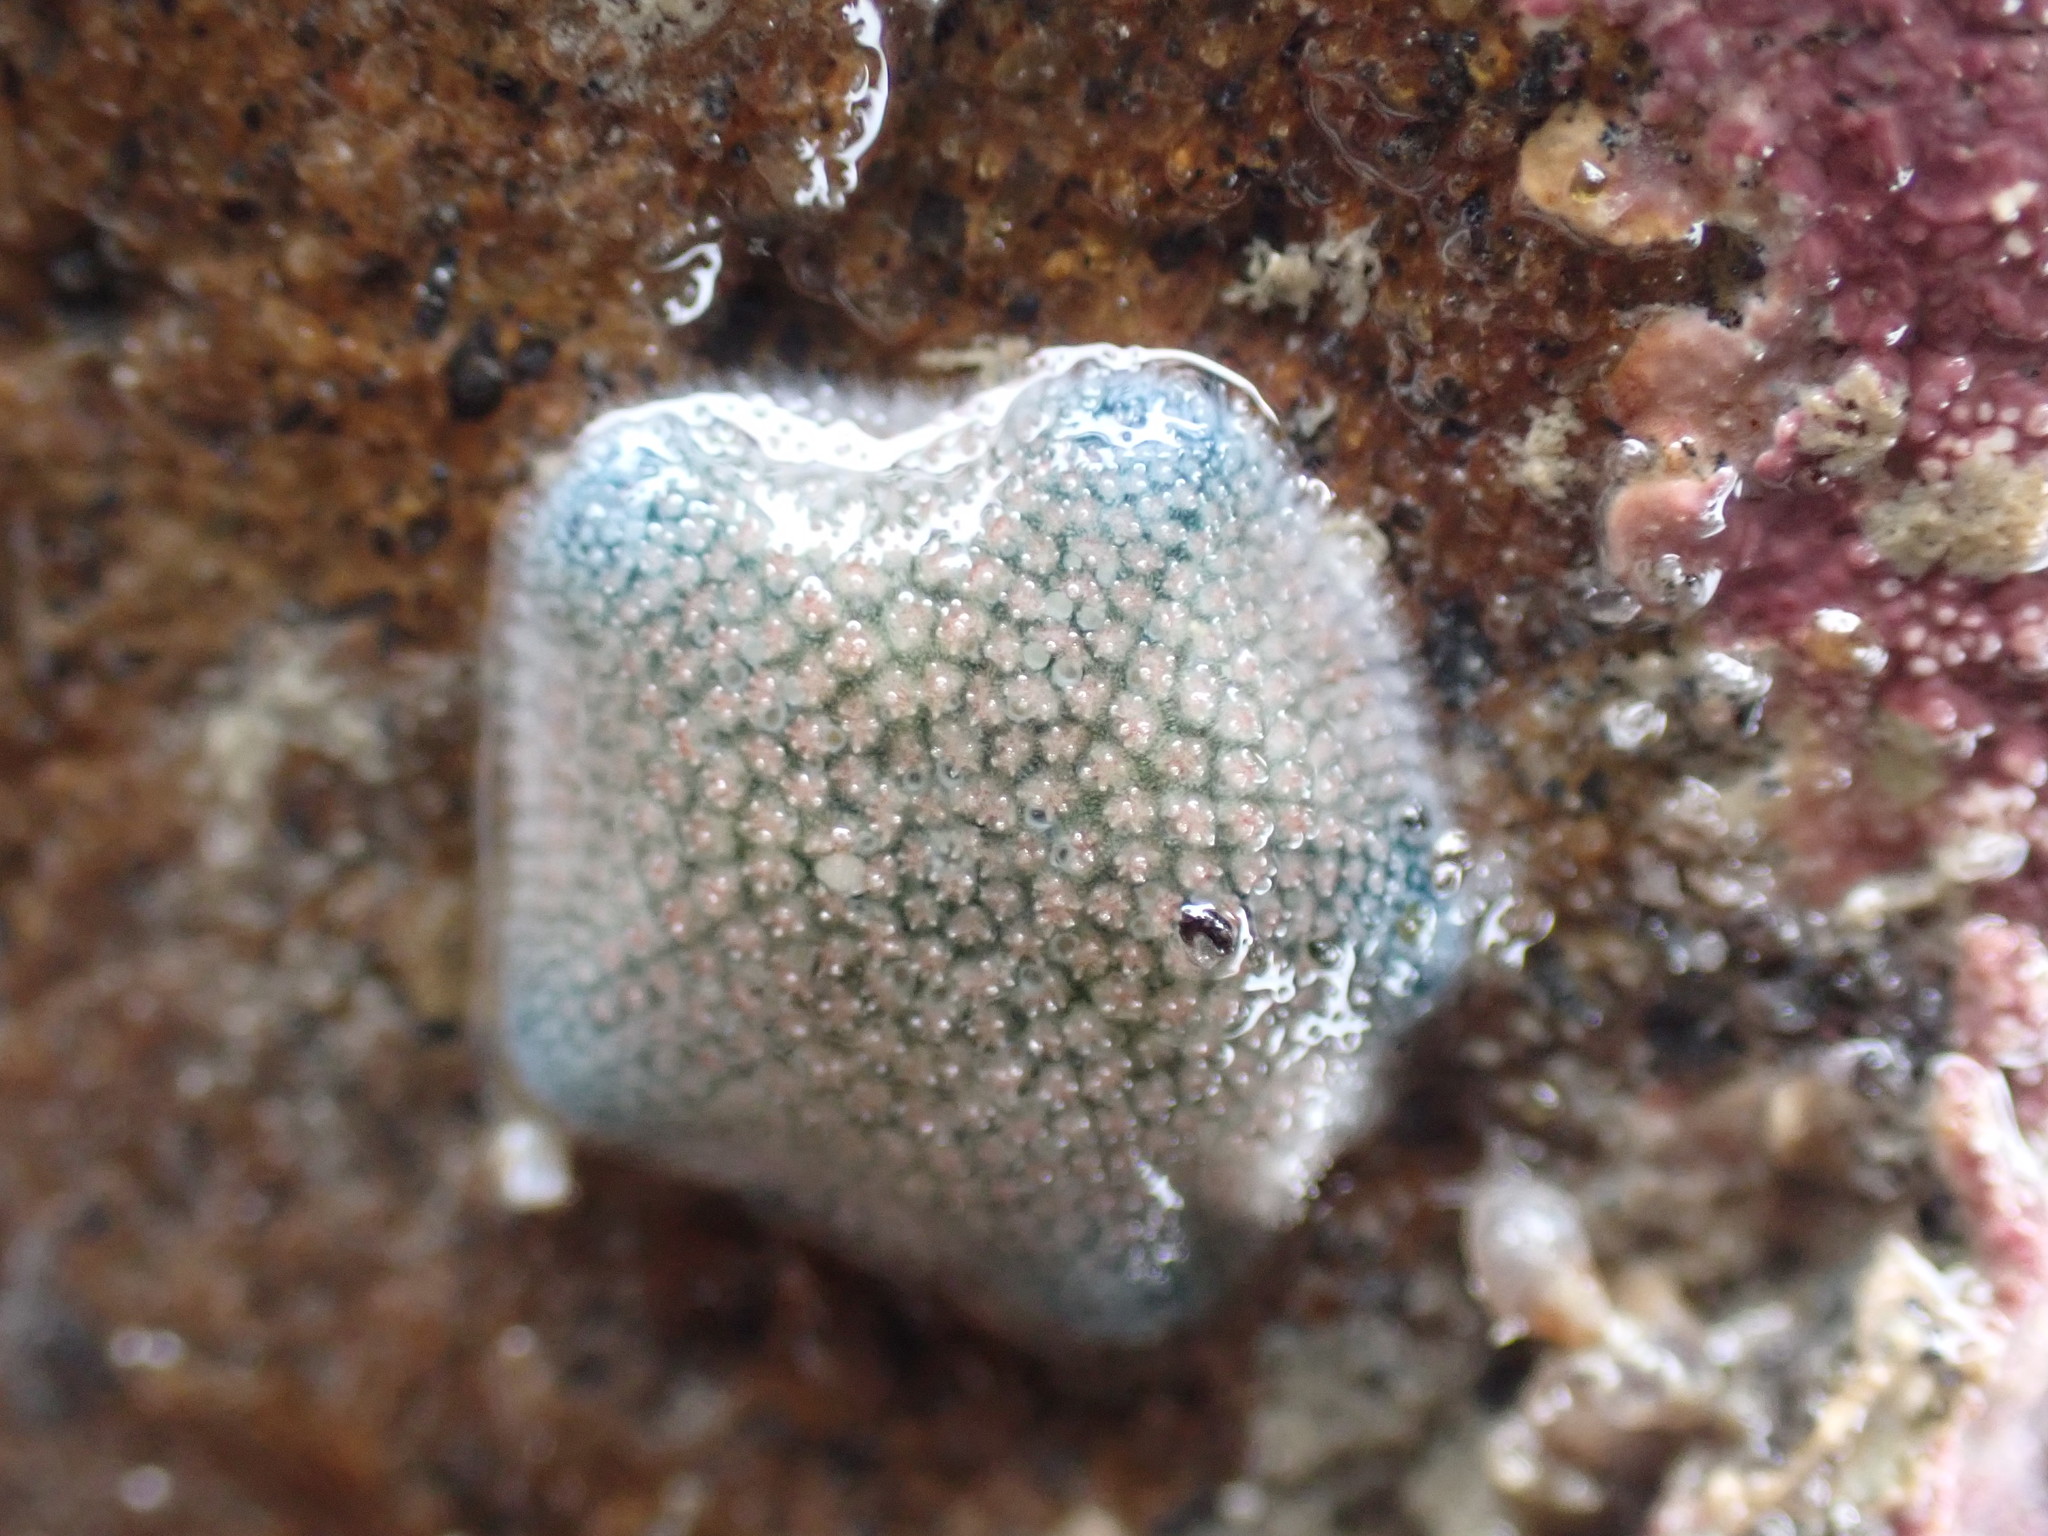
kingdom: Animalia
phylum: Echinodermata
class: Asteroidea
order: Valvatida
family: Asterinidae
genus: Patiriella
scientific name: Patiriella regularis
